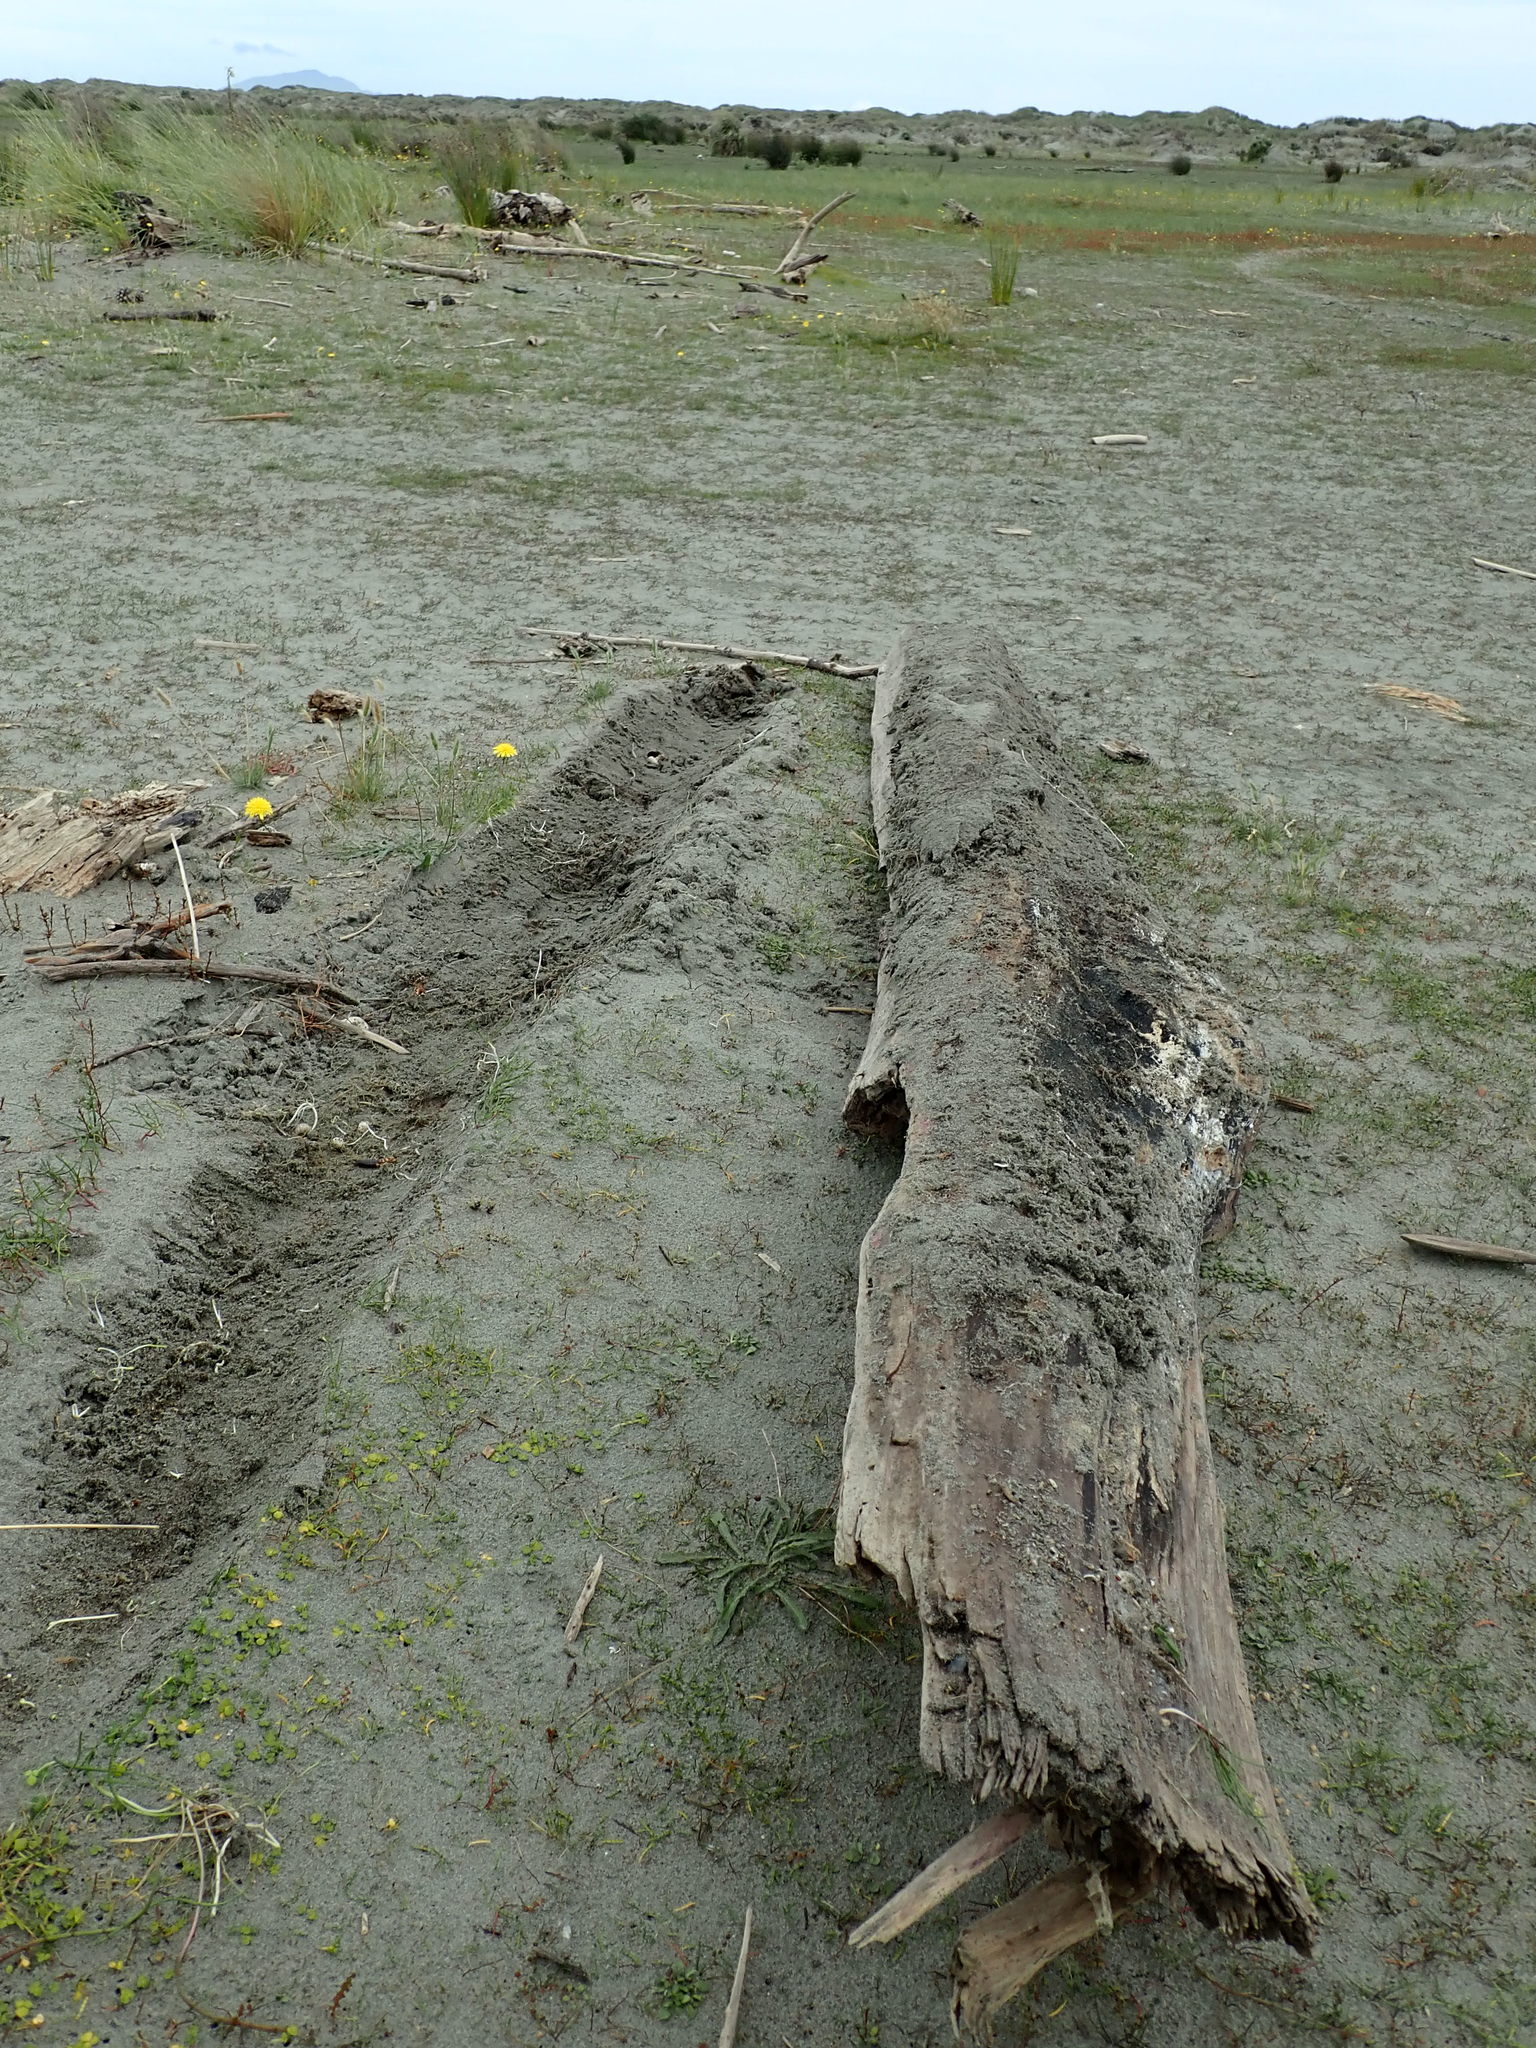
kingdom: Animalia
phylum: Arthropoda
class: Insecta
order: Dermaptera
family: Anisolabididae
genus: Anisolabis
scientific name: Anisolabis littorea
